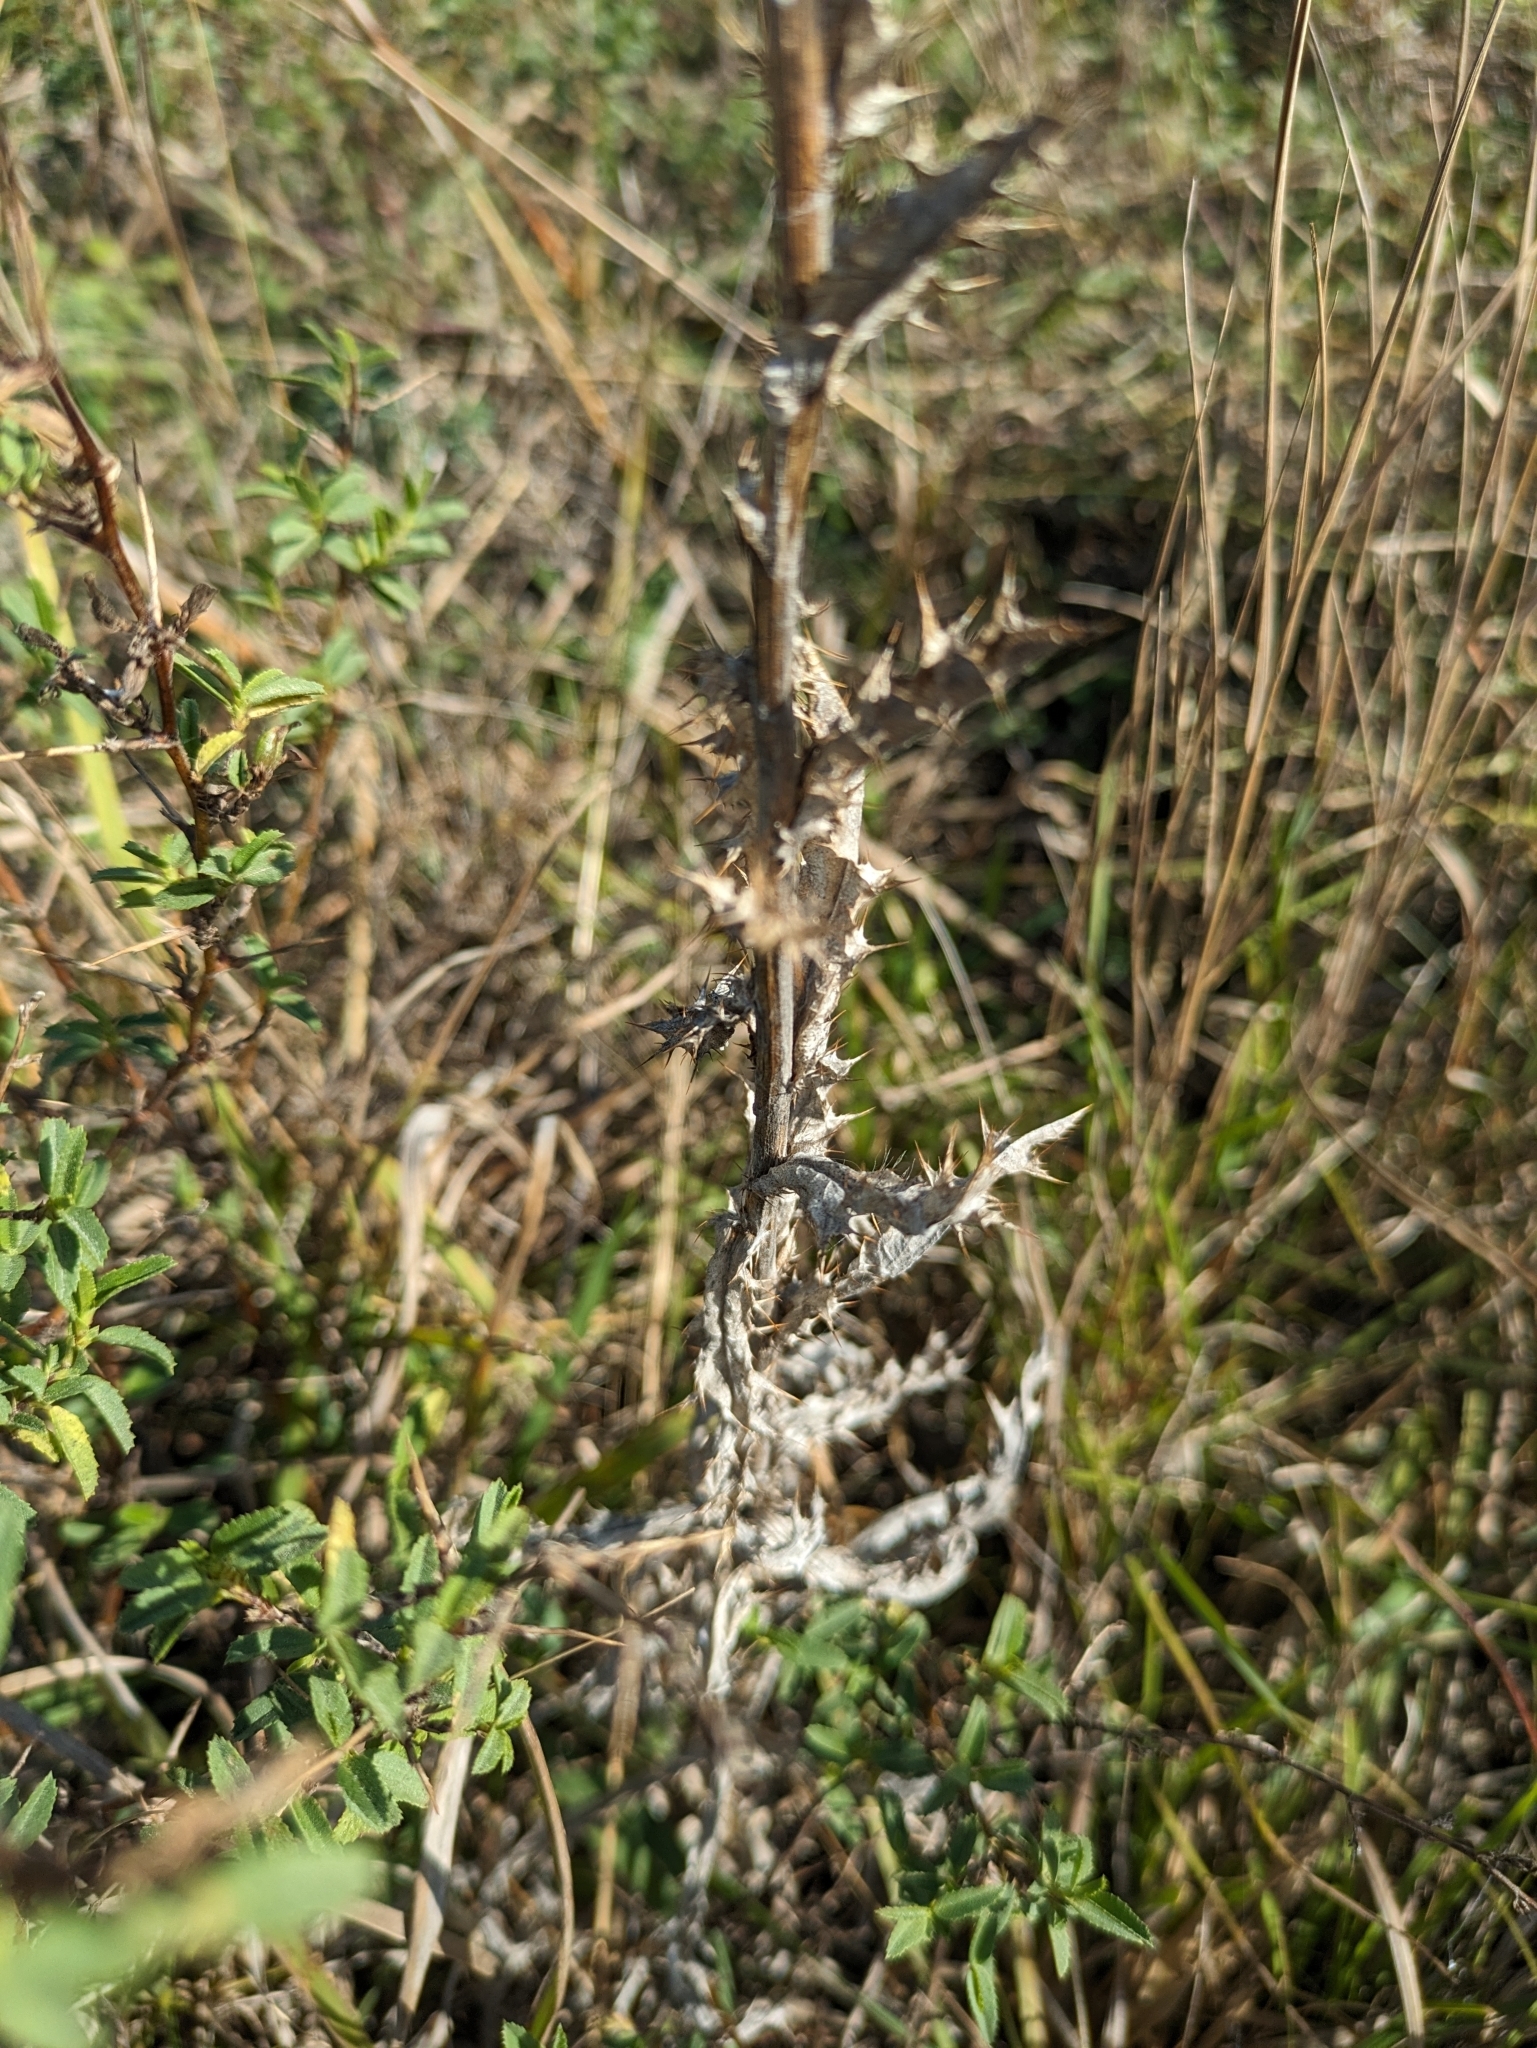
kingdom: Plantae
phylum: Tracheophyta
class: Magnoliopsida
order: Asterales
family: Asteraceae
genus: Carlina
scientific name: Carlina vulgaris
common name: Carline thistle
